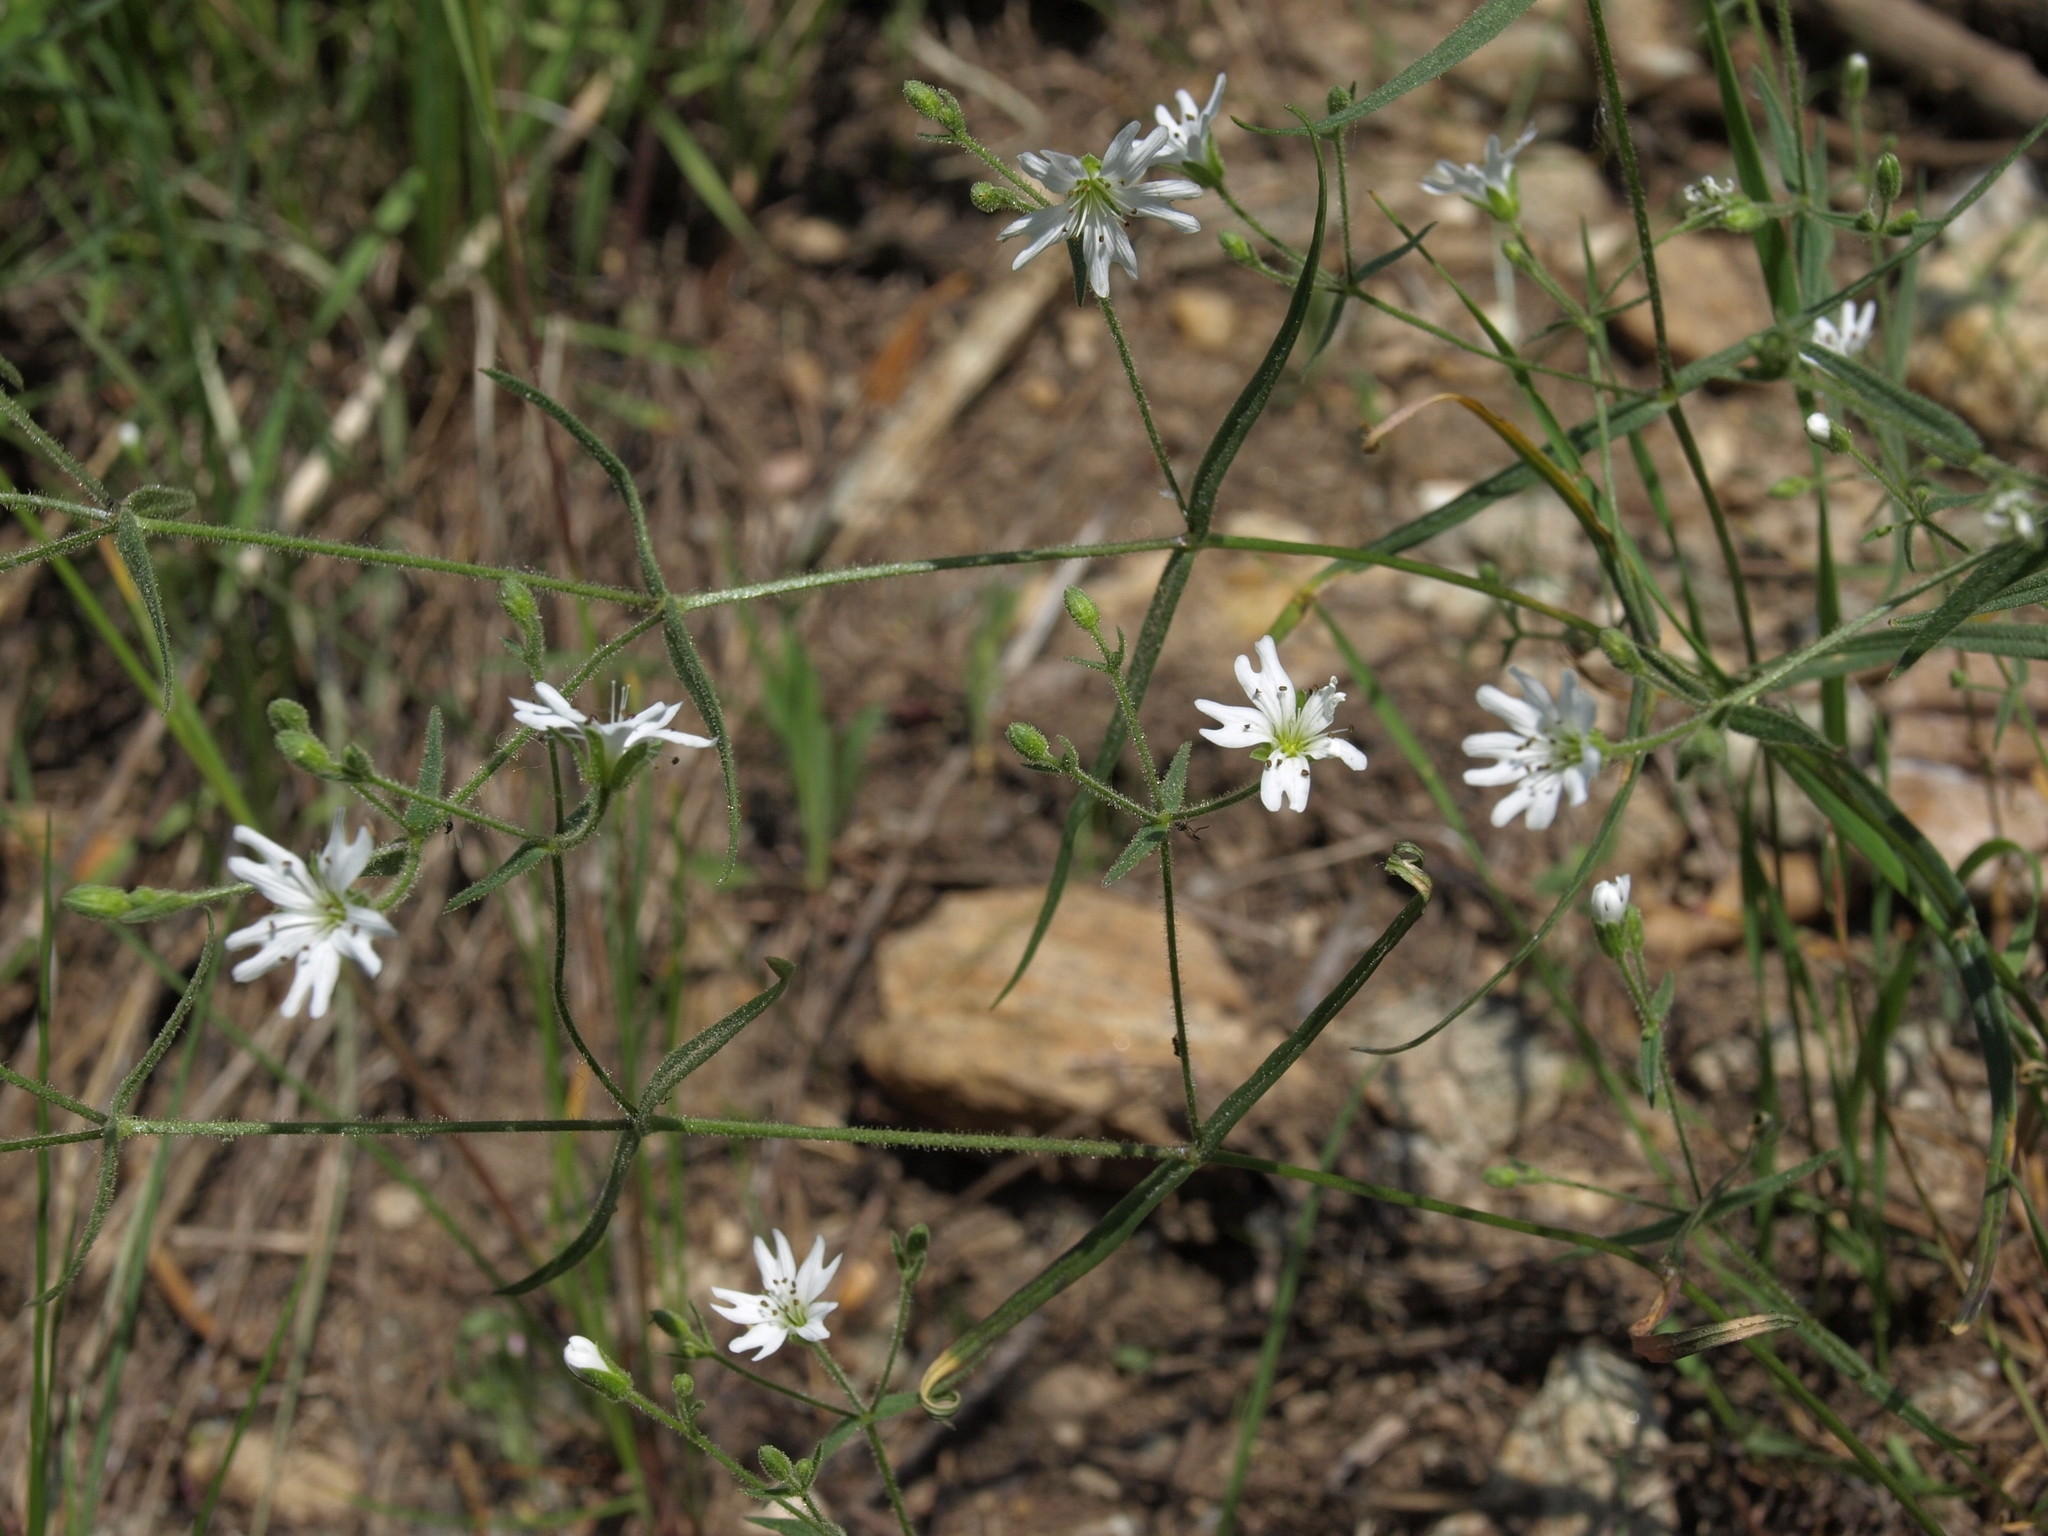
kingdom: Plantae
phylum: Tracheophyta
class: Magnoliopsida
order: Caryophyllales
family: Caryophyllaceae
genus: Schizotechium
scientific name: Schizotechium jamesianum
